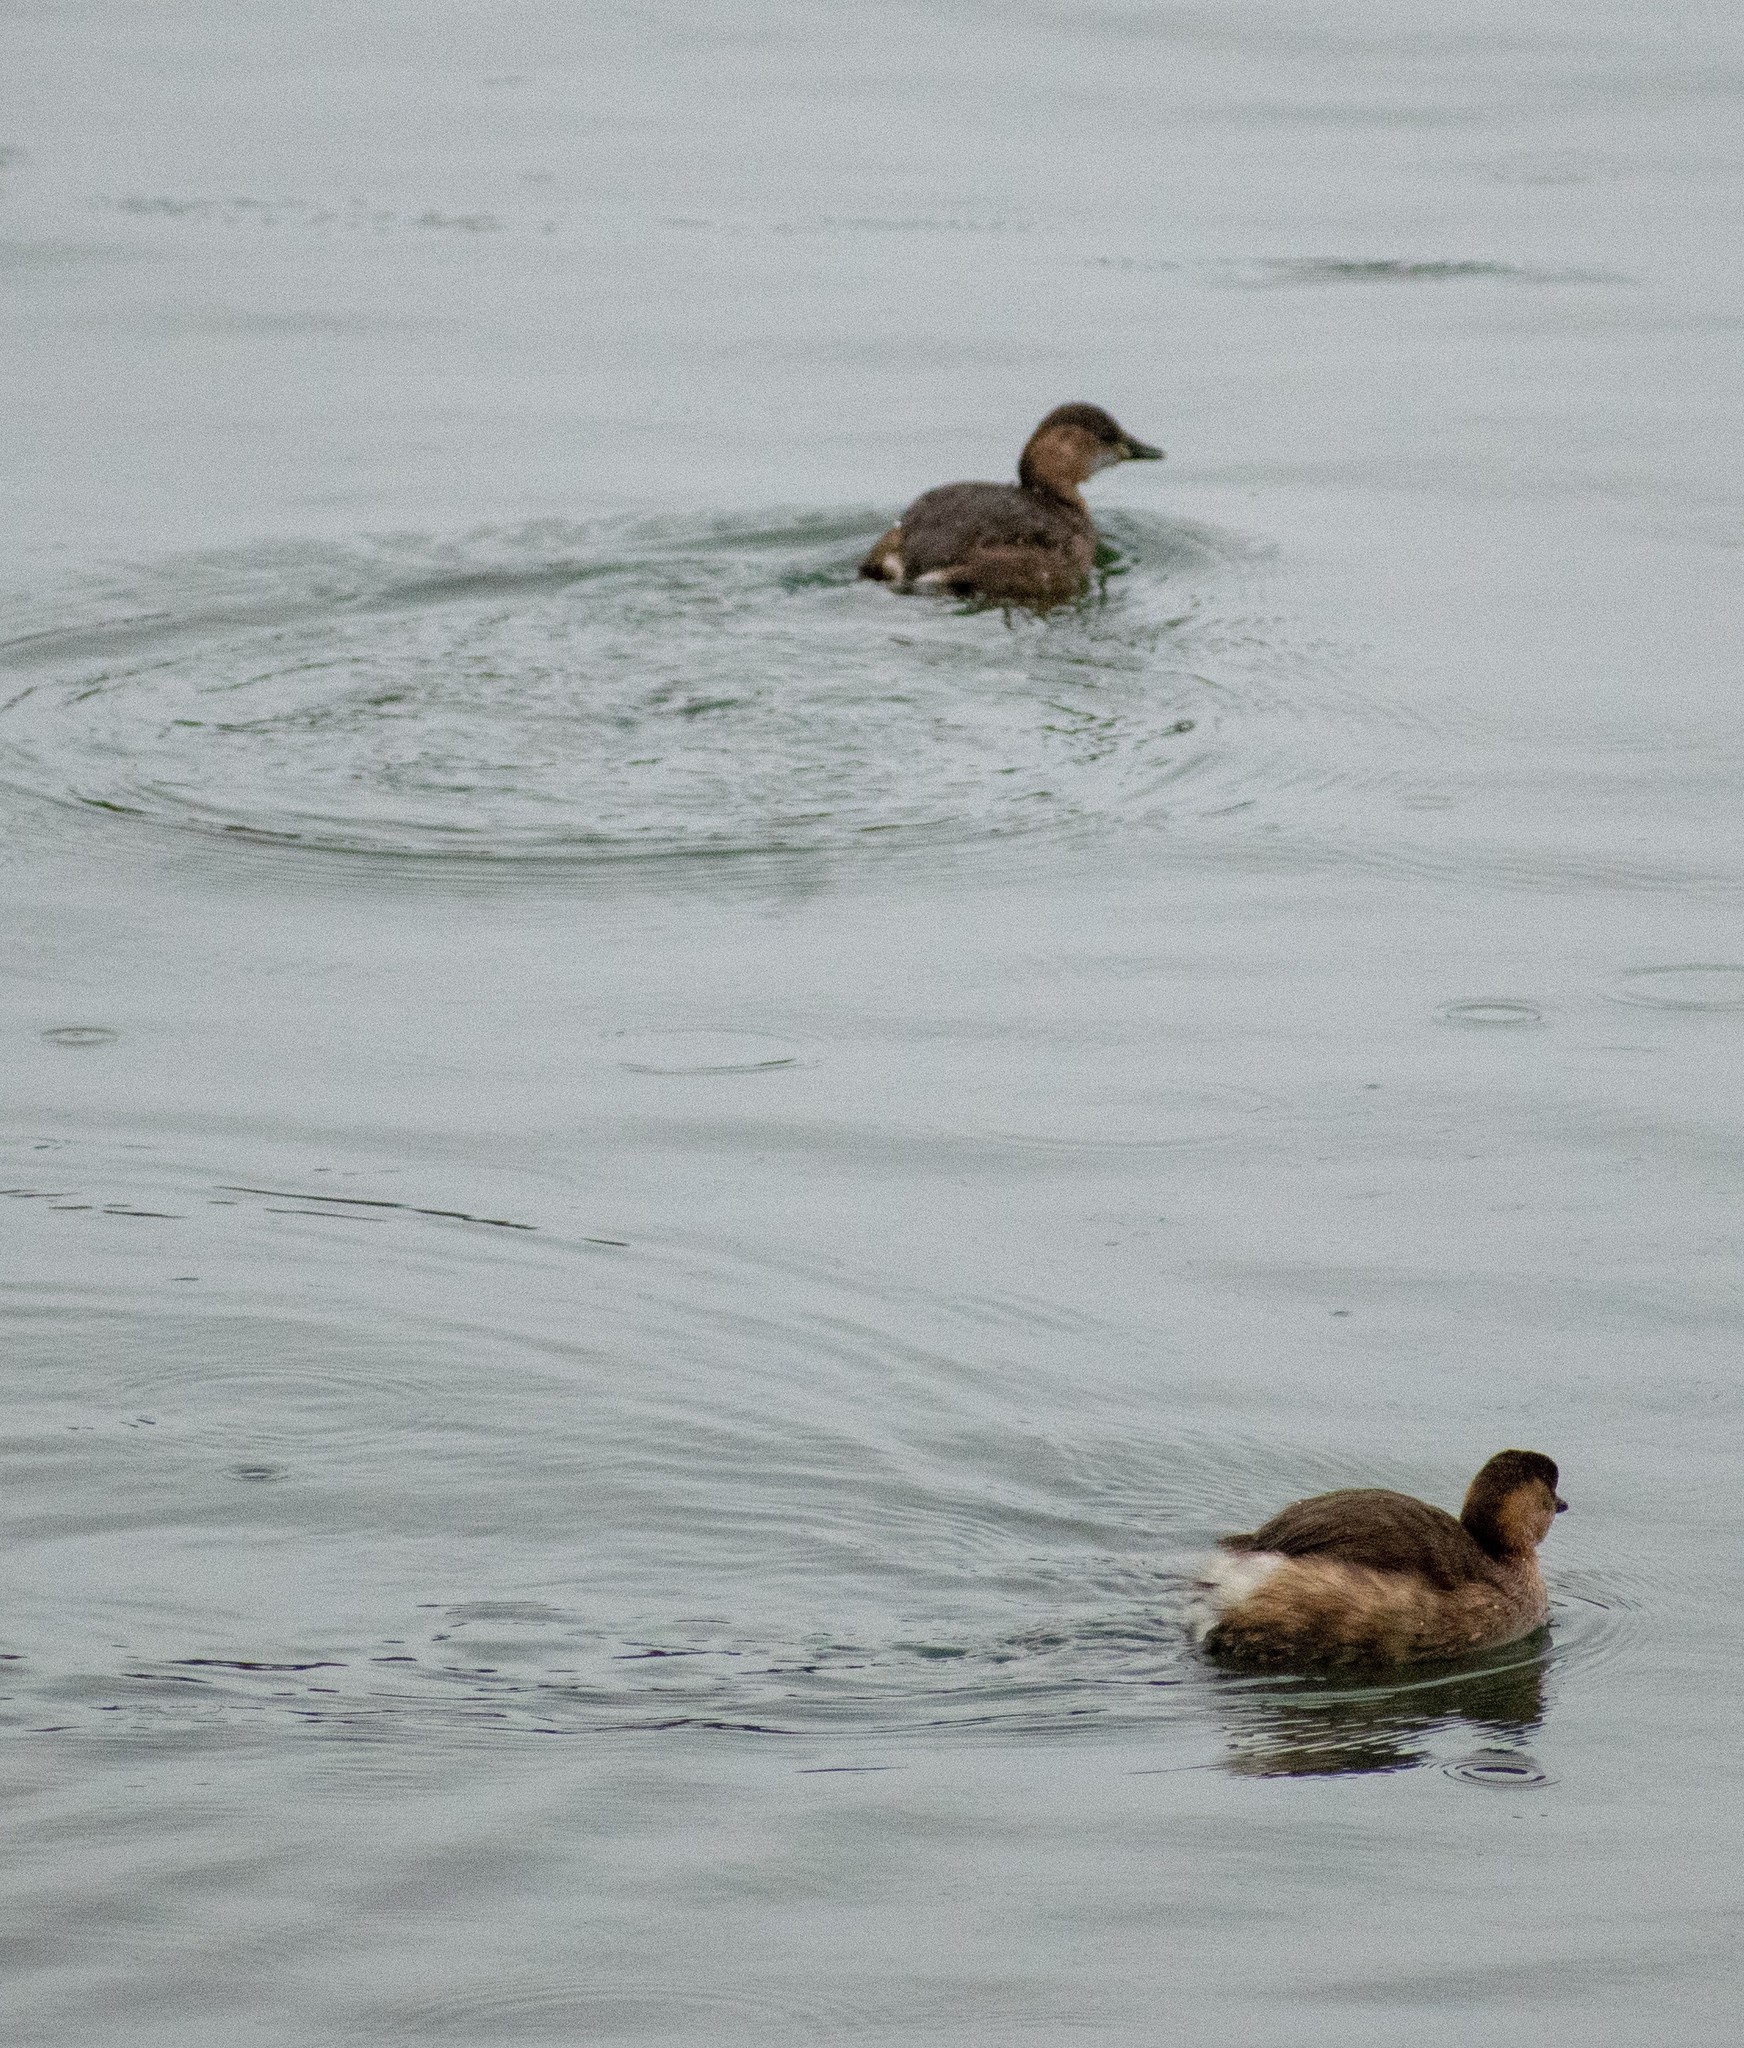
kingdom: Animalia
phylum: Chordata
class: Aves
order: Podicipediformes
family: Podicipedidae
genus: Tachybaptus
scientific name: Tachybaptus ruficollis
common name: Little grebe
